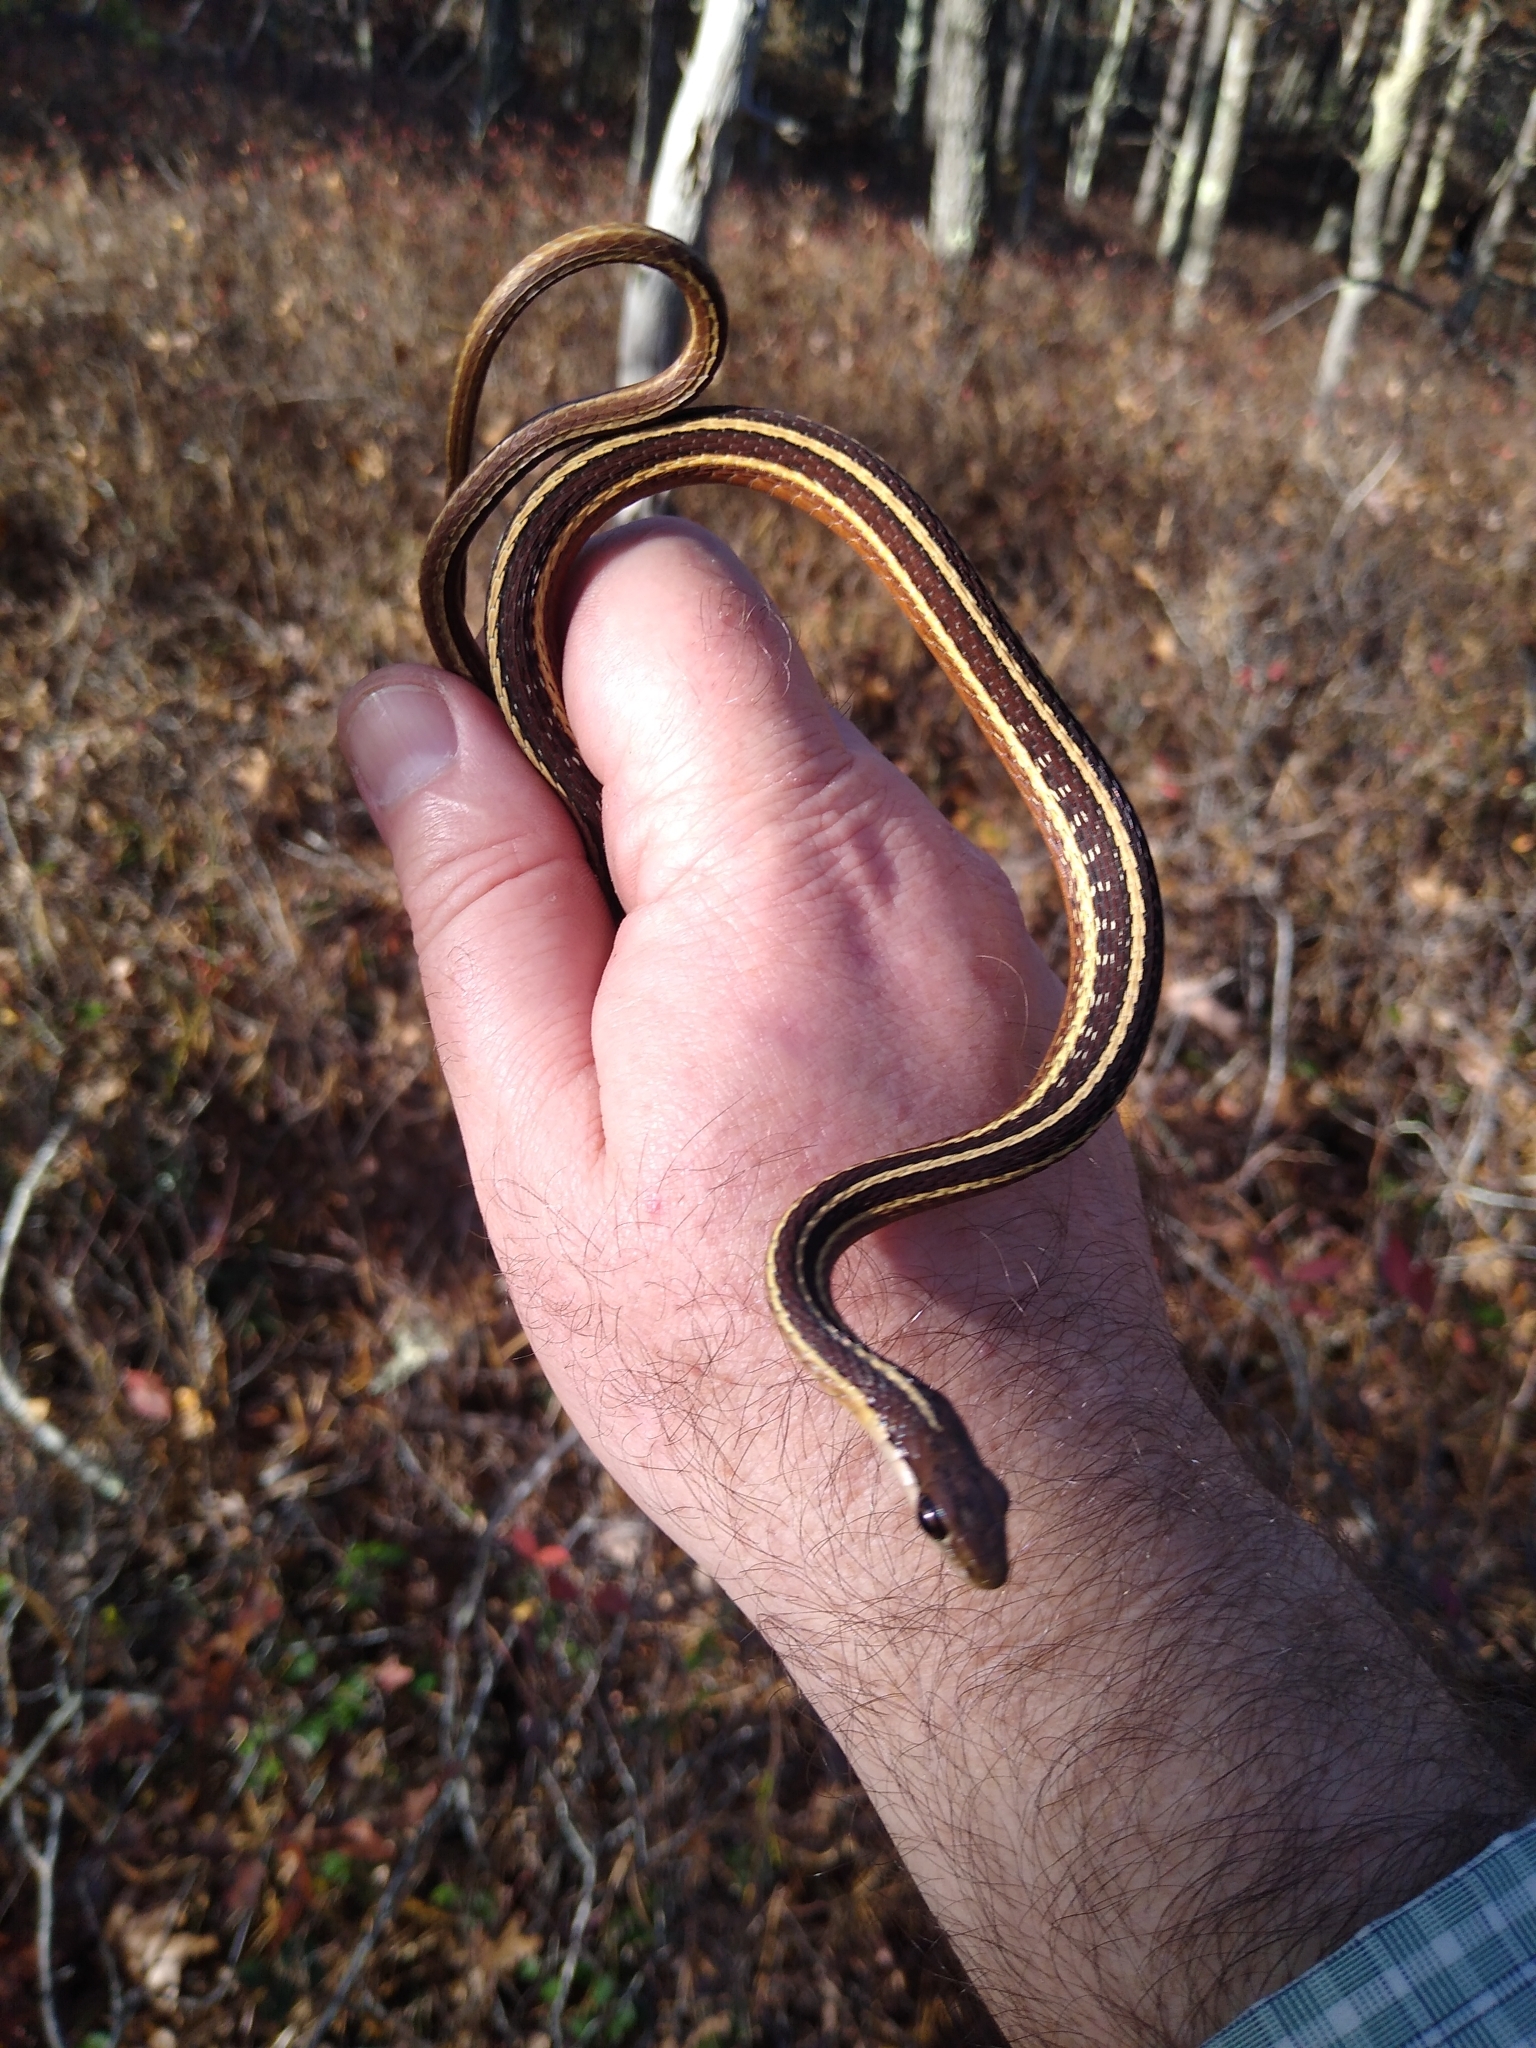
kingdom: Animalia
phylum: Chordata
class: Squamata
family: Colubridae
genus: Thamnophis
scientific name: Thamnophis saurita
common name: Eastern ribbonsnake
